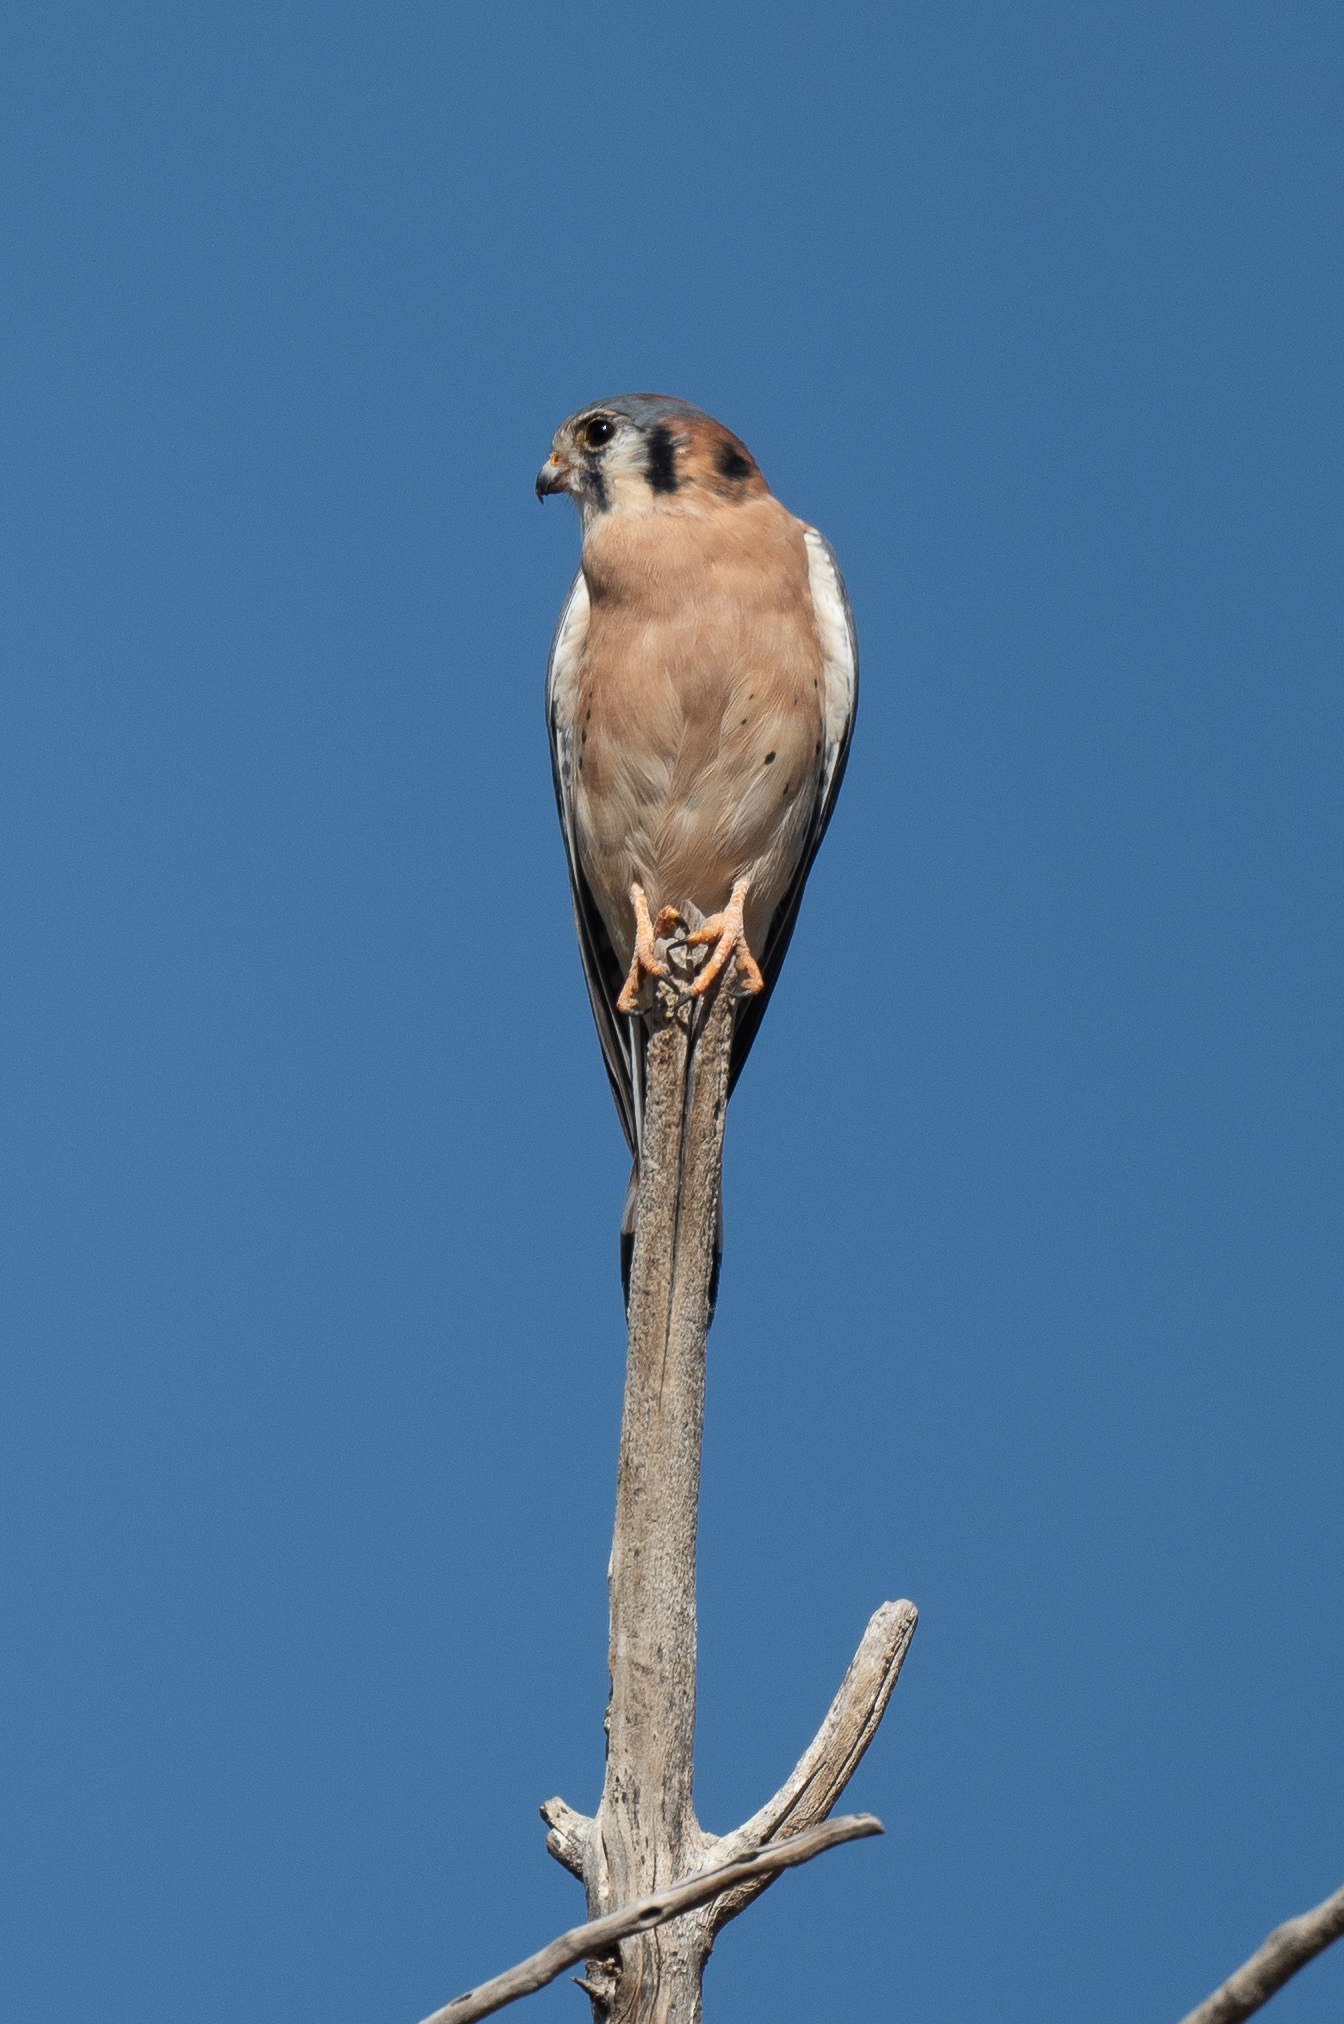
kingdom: Animalia
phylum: Chordata
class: Aves
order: Falconiformes
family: Falconidae
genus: Falco
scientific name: Falco sparverius
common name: American kestrel
